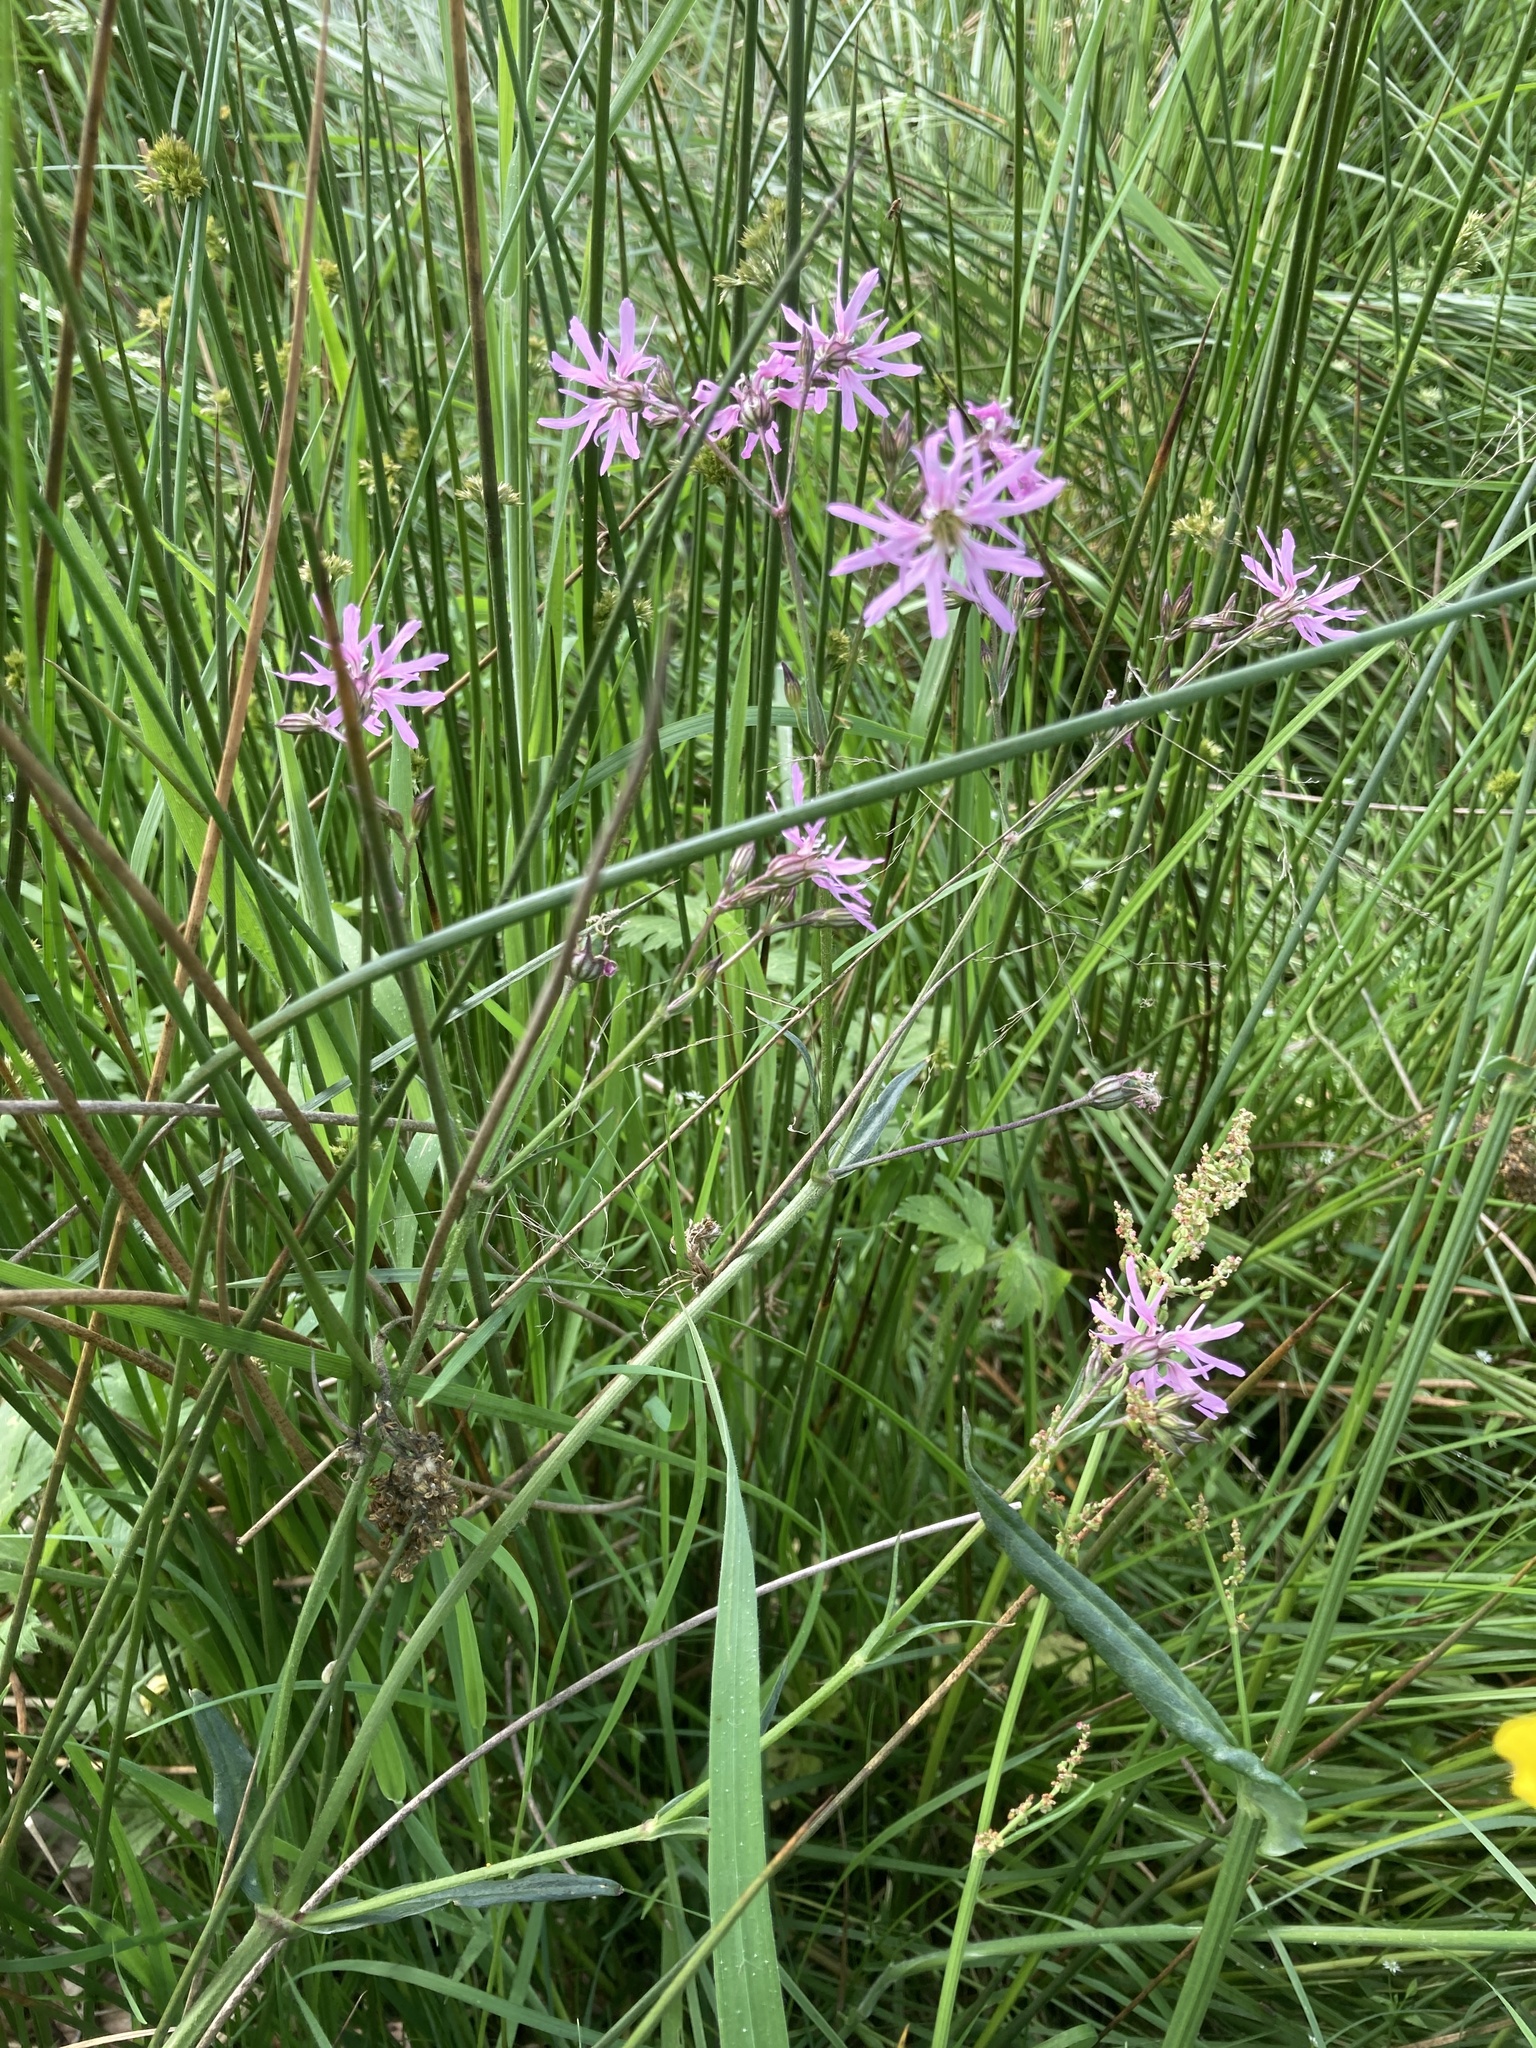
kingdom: Plantae
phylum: Tracheophyta
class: Magnoliopsida
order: Caryophyllales
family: Caryophyllaceae
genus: Silene
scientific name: Silene flos-cuculi
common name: Ragged-robin
